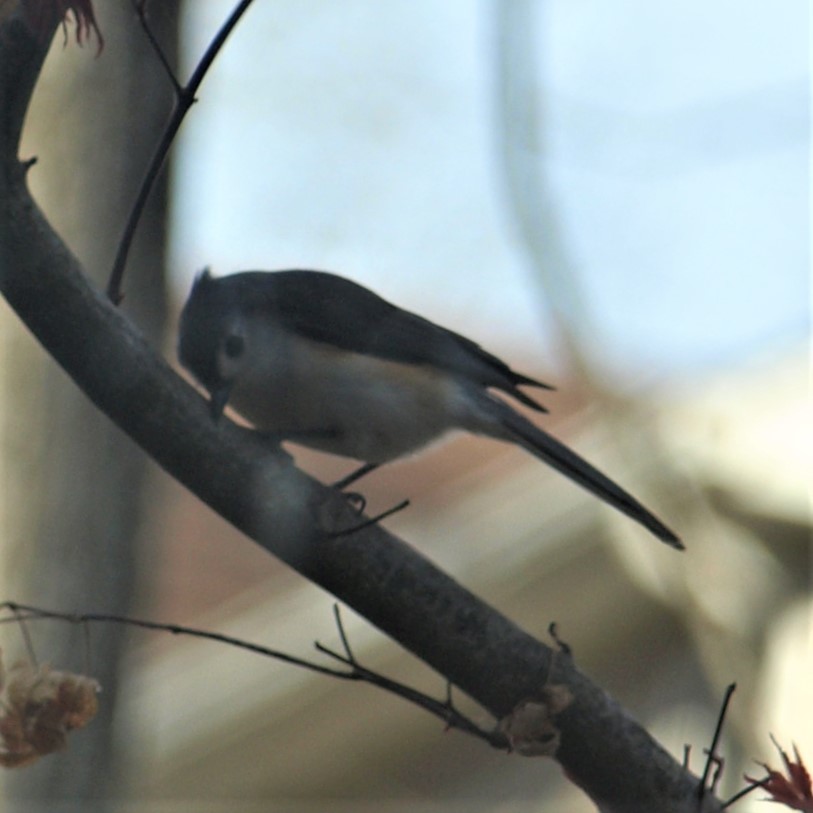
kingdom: Animalia
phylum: Chordata
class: Aves
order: Passeriformes
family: Paridae
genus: Baeolophus
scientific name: Baeolophus bicolor
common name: Tufted titmouse
